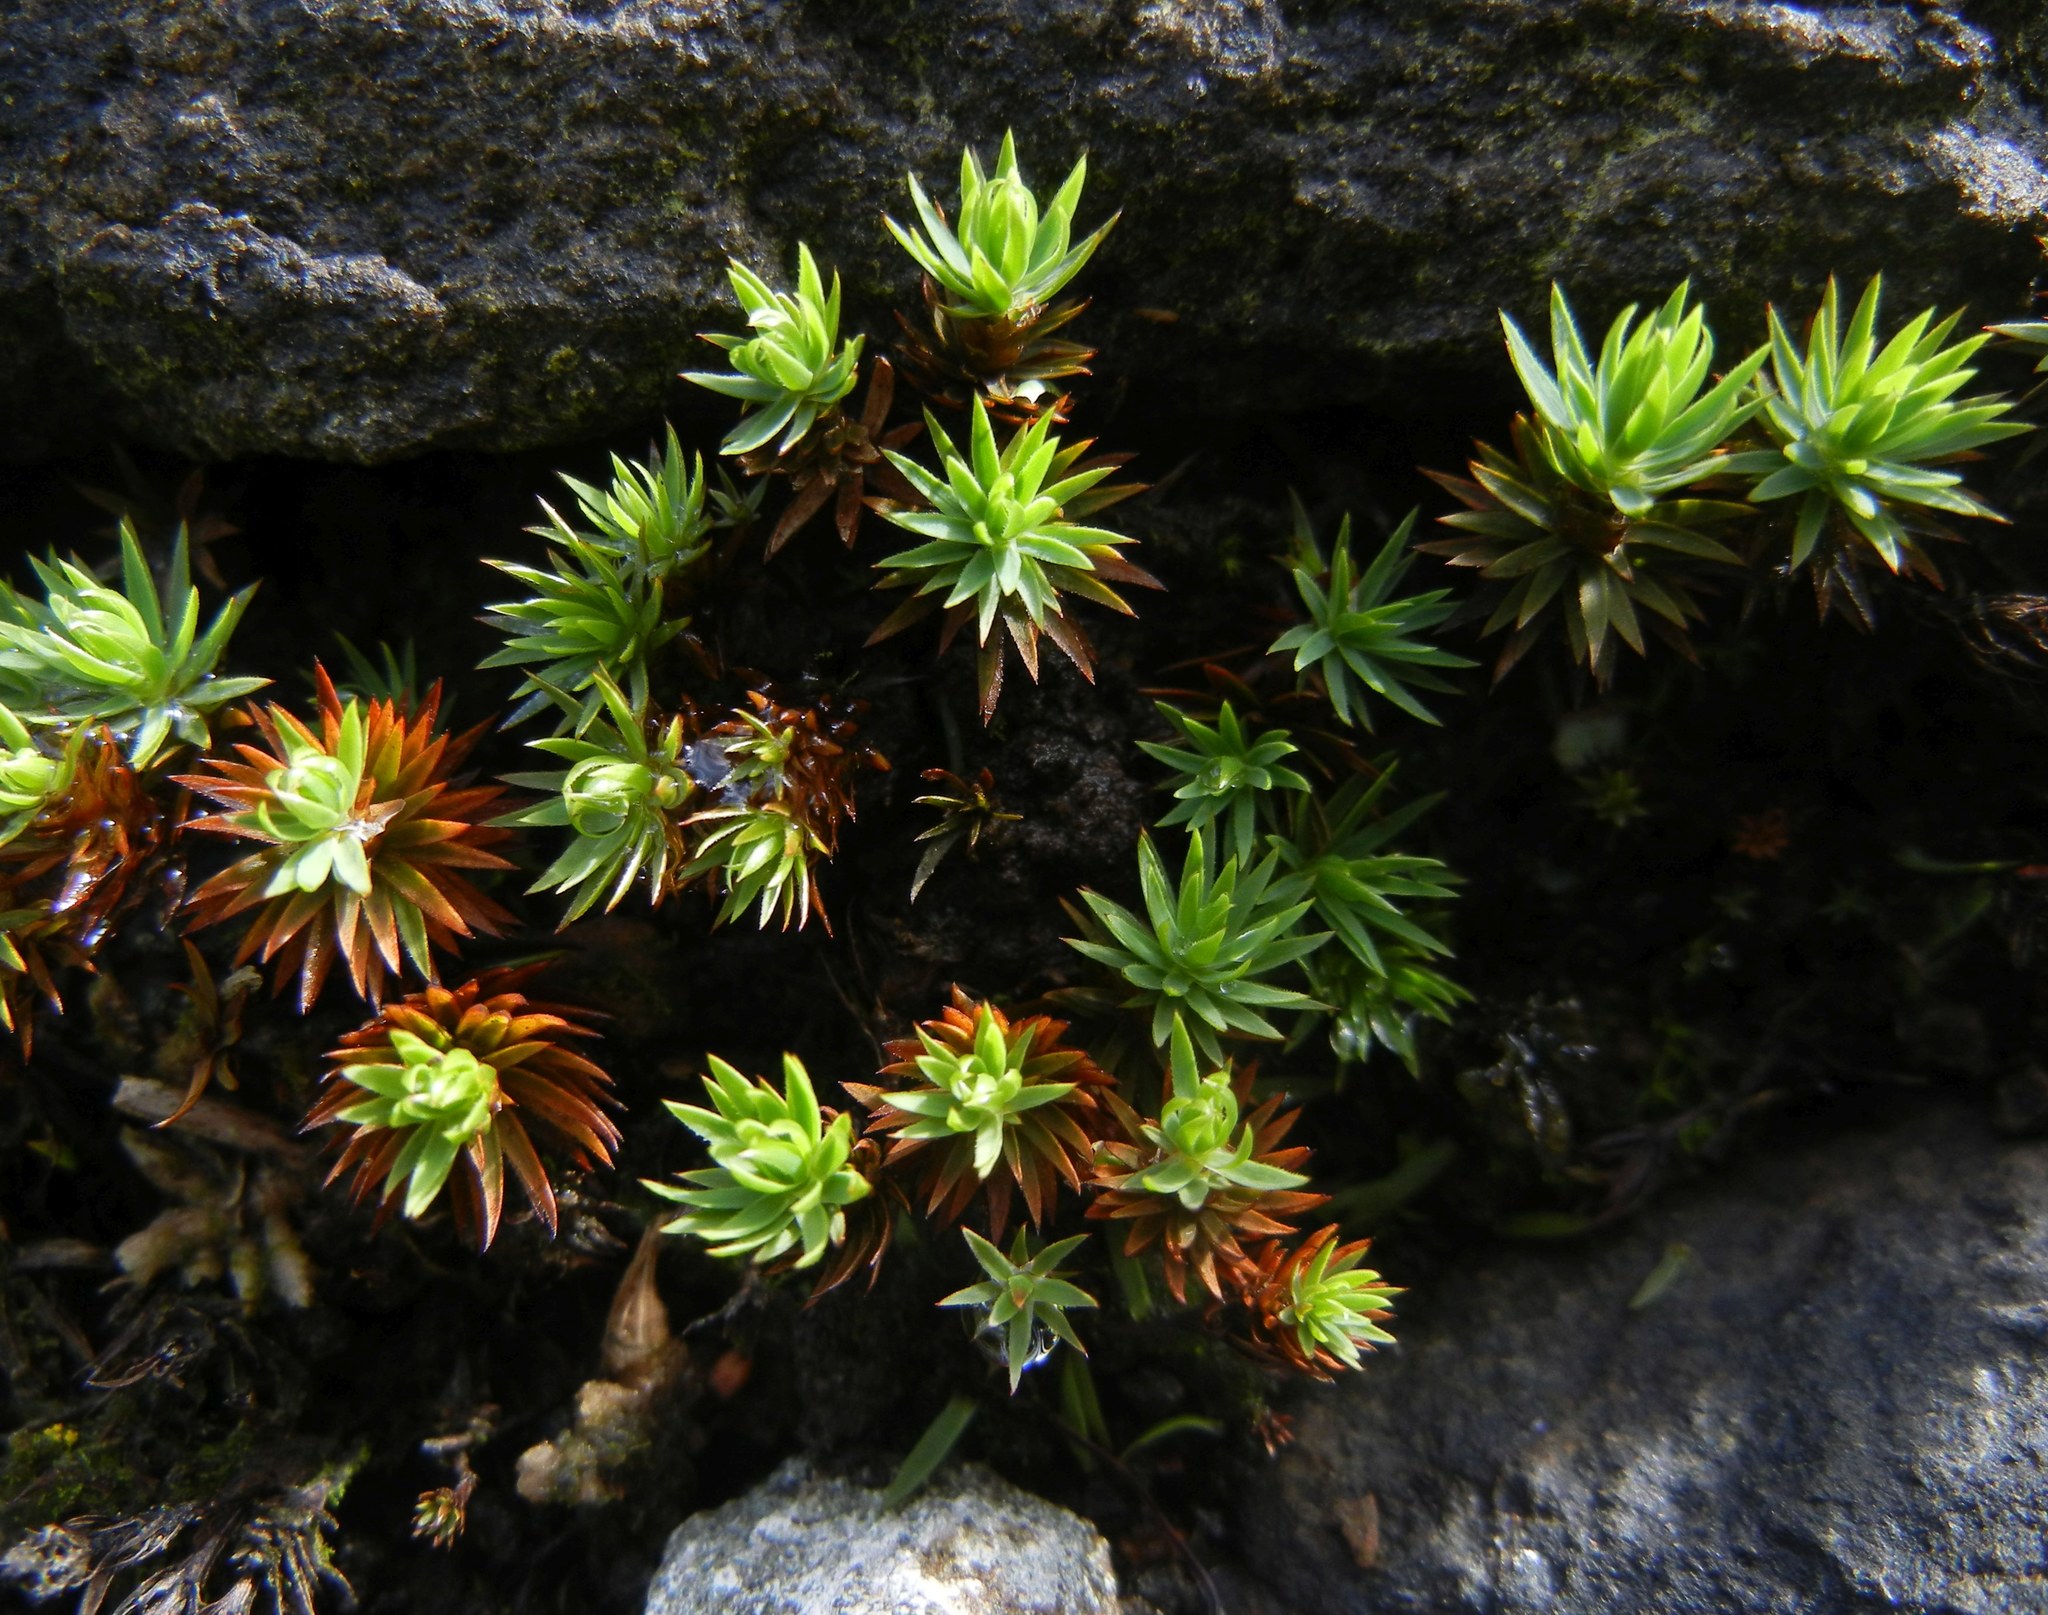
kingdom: Plantae
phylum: Bryophyta
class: Polytrichopsida
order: Polytrichales
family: Polytrichaceae
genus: Pogonatum
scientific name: Pogonatum urnigerum
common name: Urn hair moss
